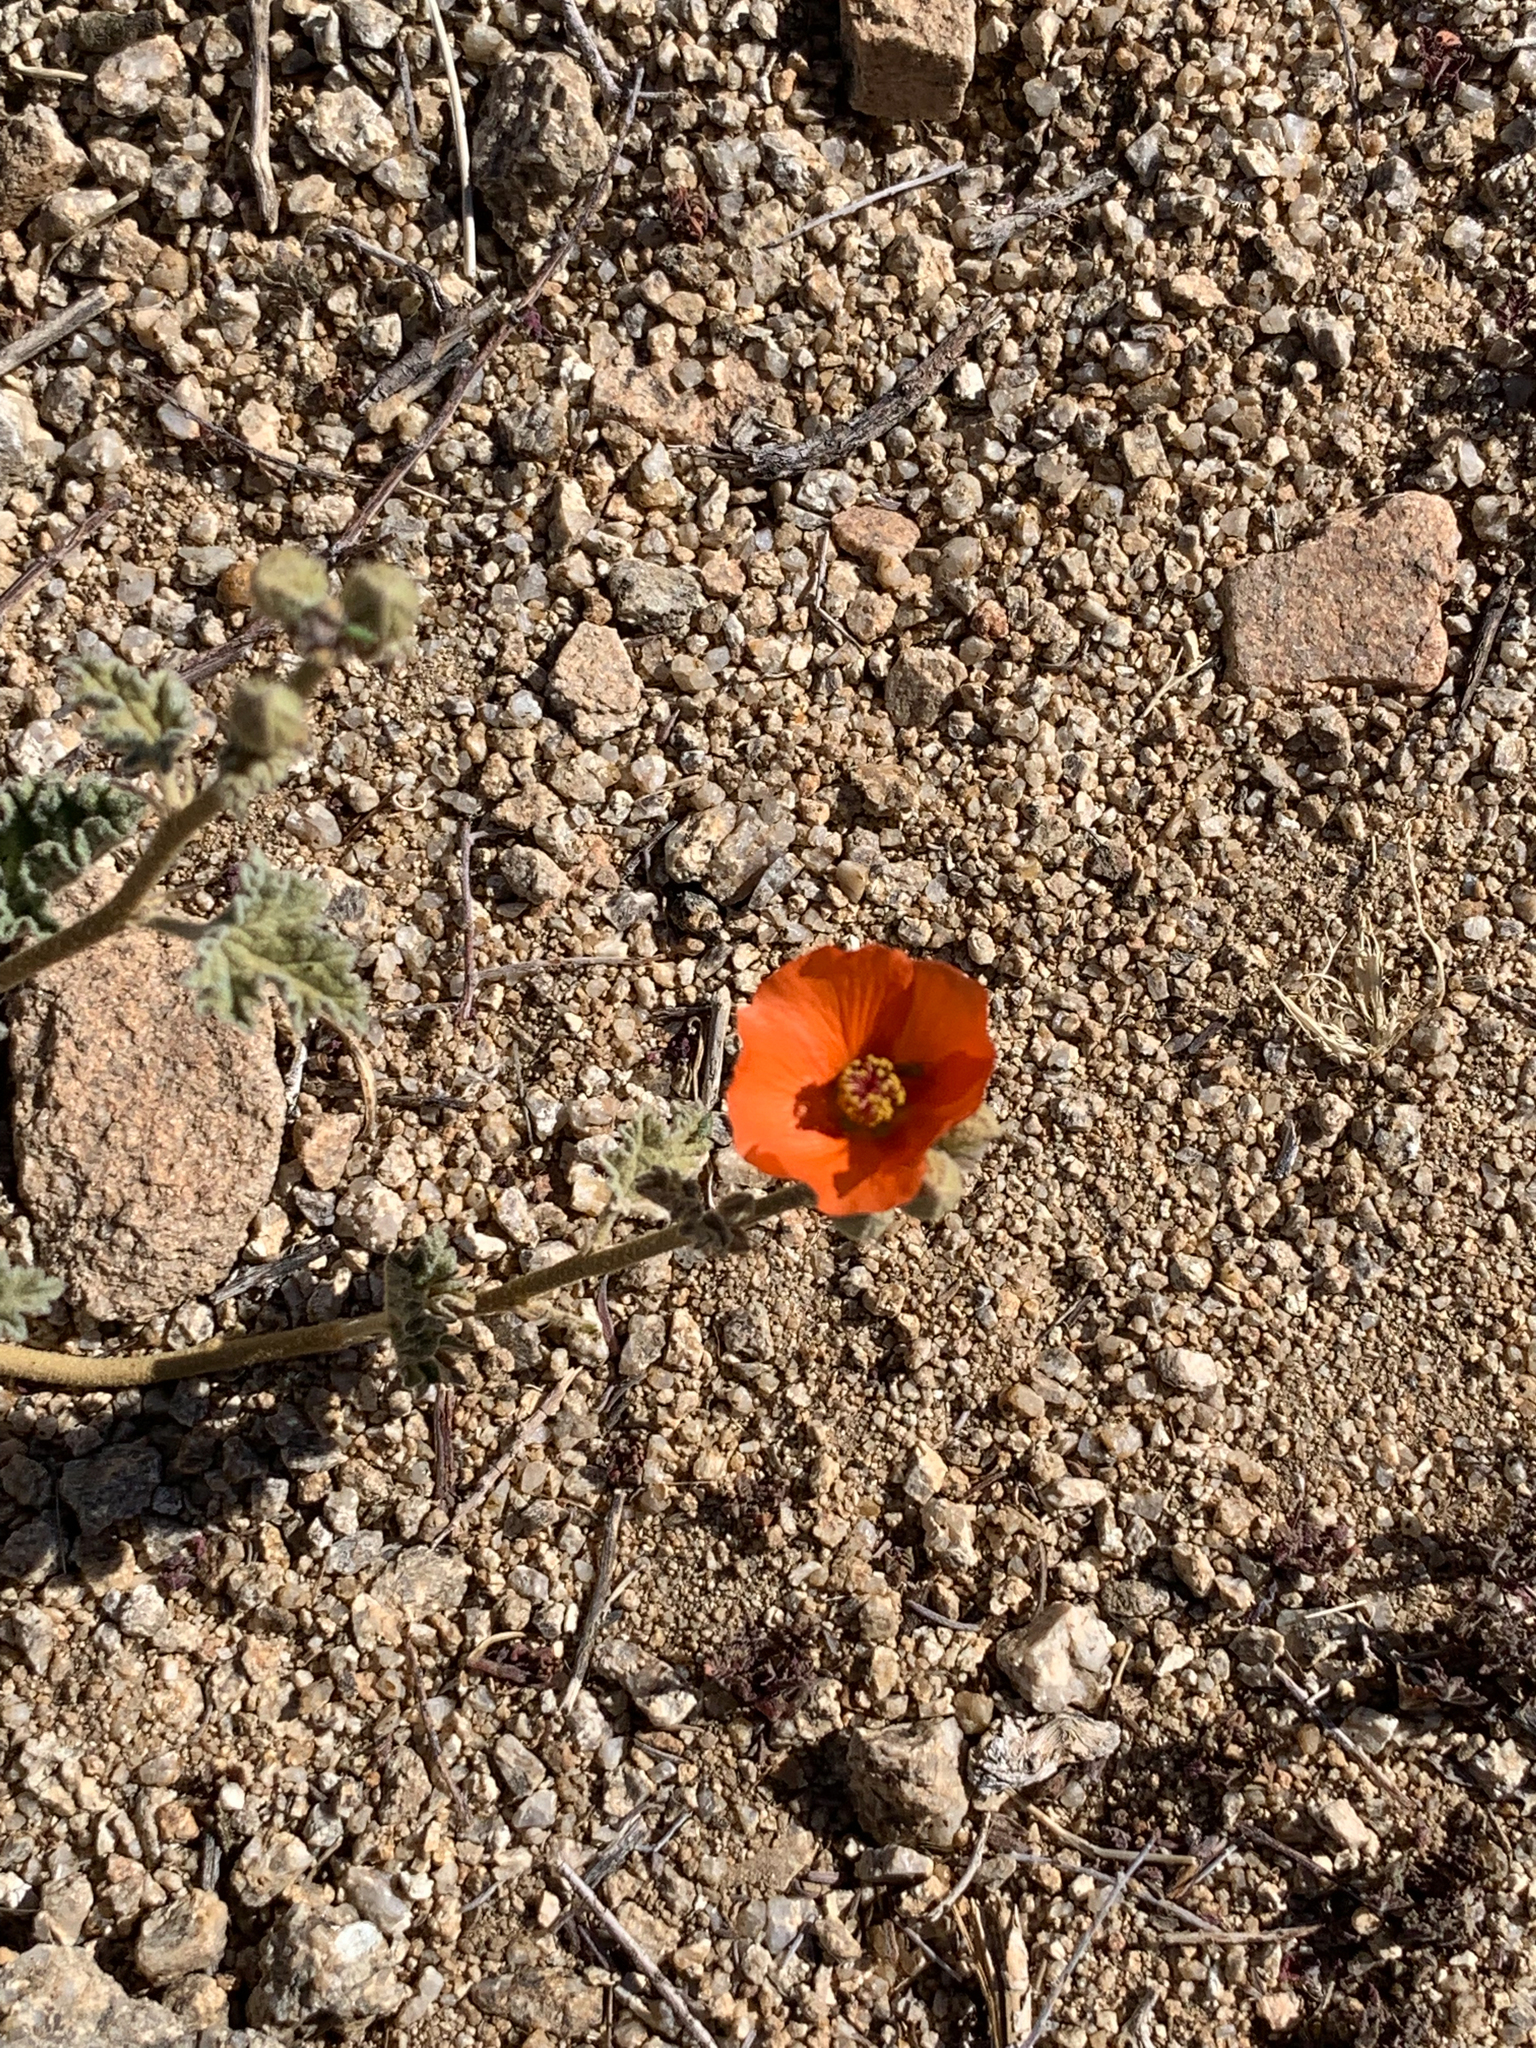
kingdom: Plantae
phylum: Tracheophyta
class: Magnoliopsida
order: Malvales
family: Malvaceae
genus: Sphaeralcea
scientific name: Sphaeralcea ambigua
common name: Apricot globe-mallow
